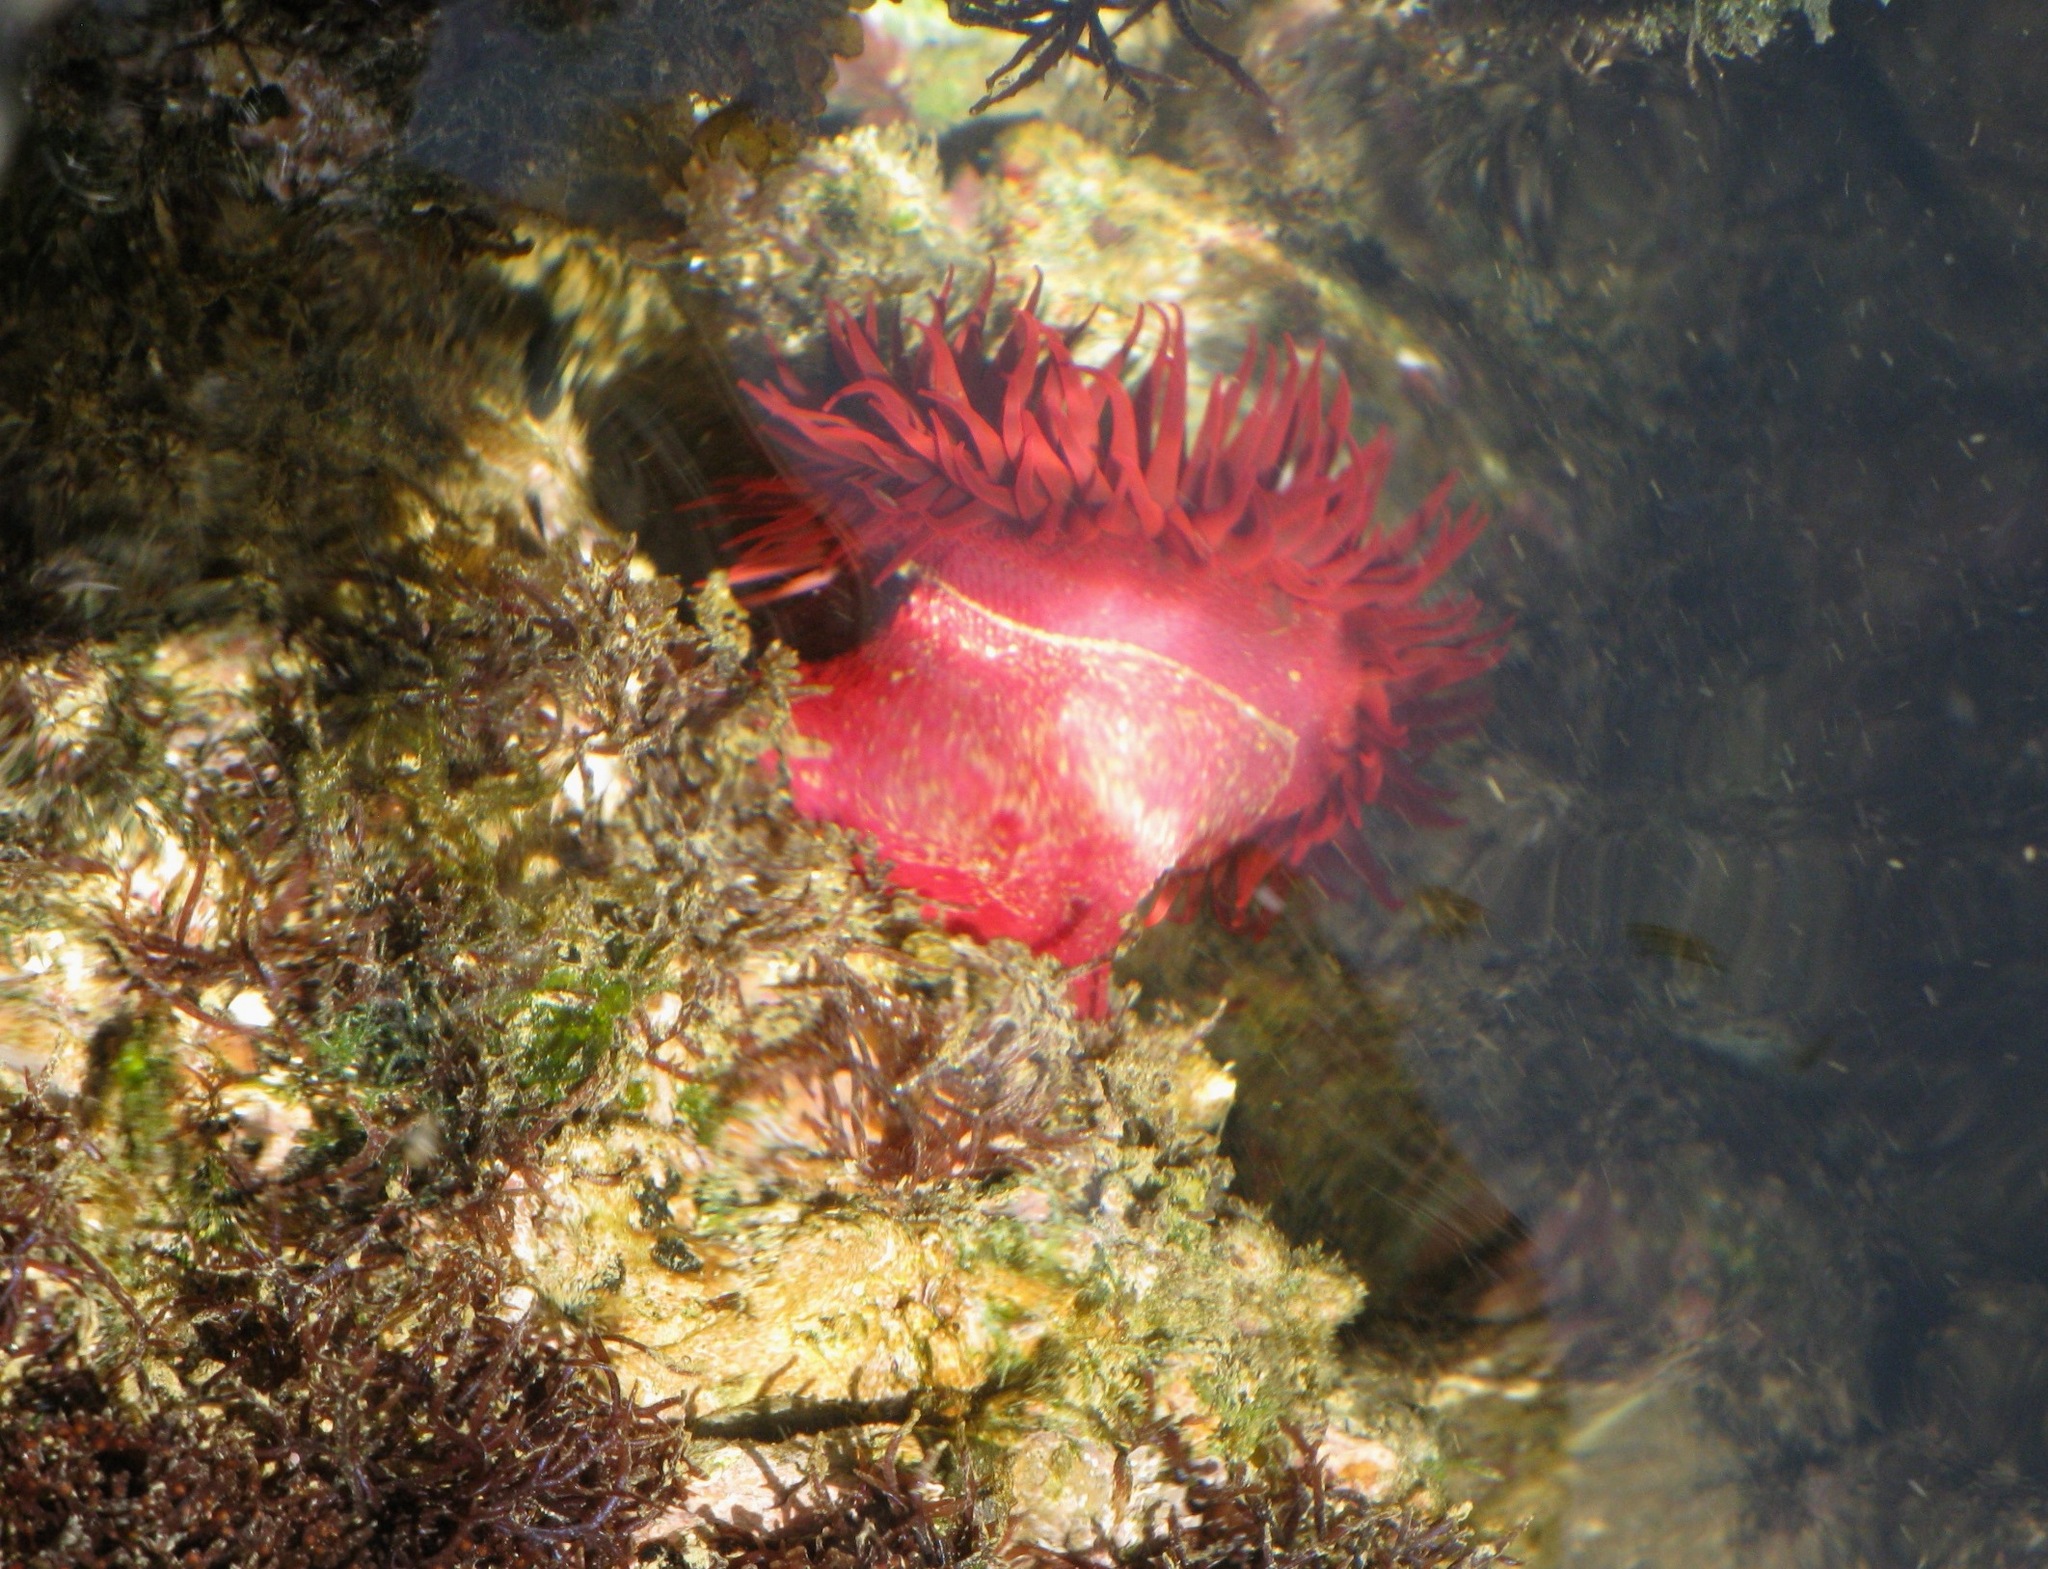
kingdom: Animalia
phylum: Cnidaria
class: Anthozoa
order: Actiniaria
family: Actiniidae
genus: Actinia
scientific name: Actinia tabella
